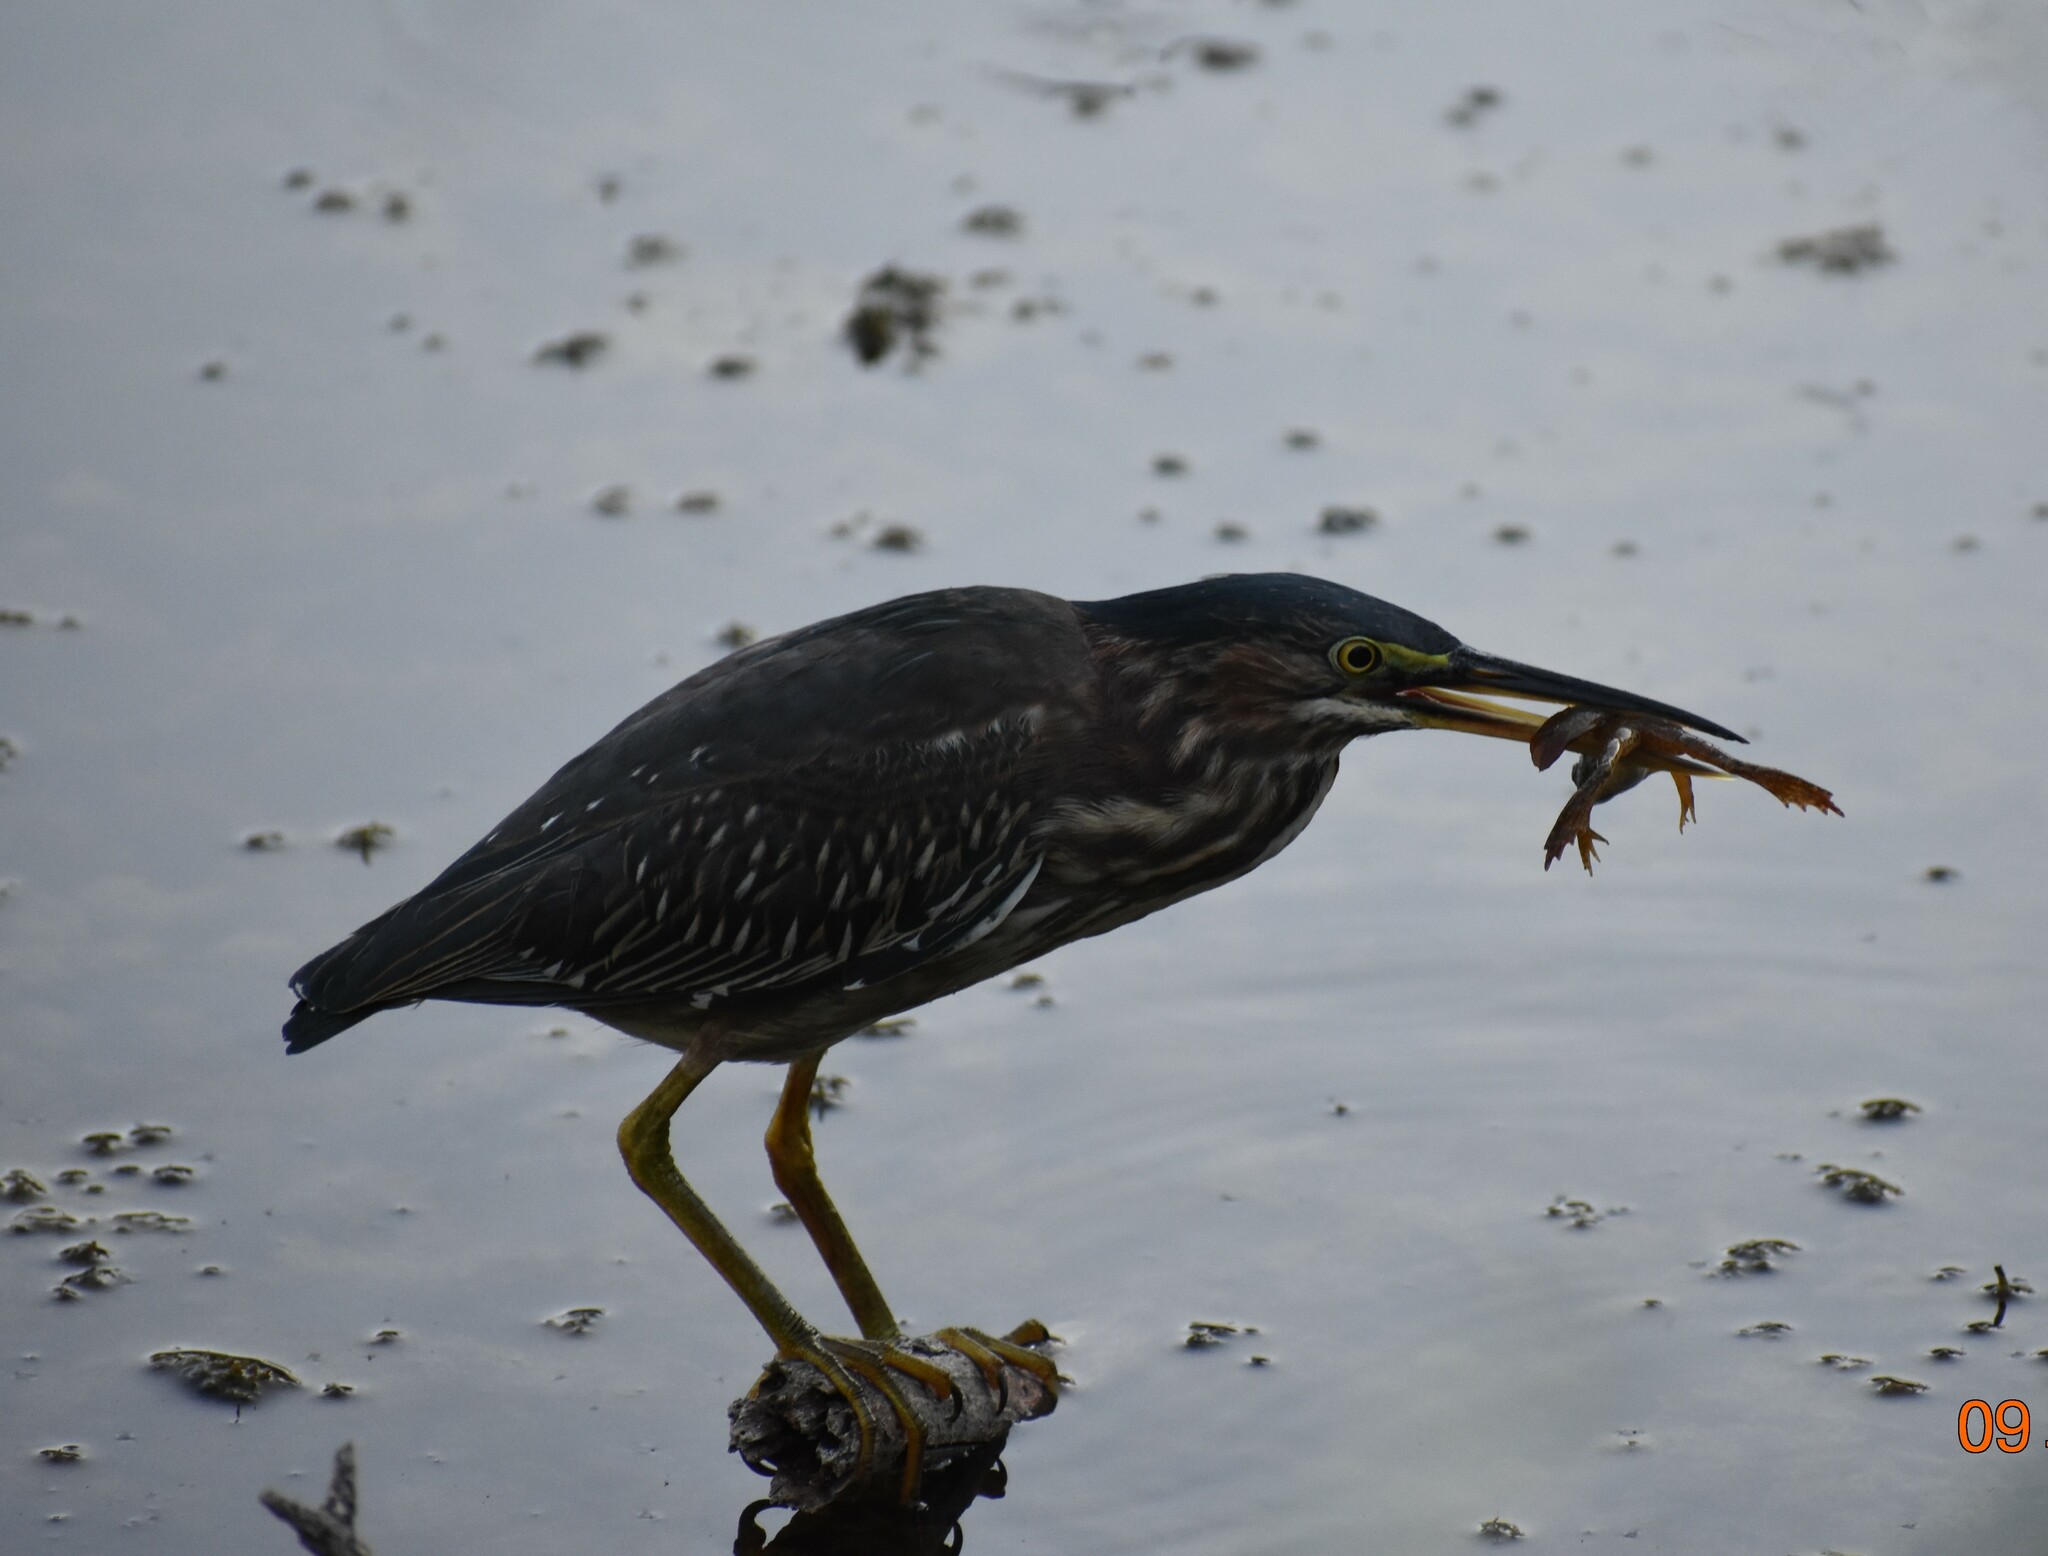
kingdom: Animalia
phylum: Chordata
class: Aves
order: Pelecaniformes
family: Ardeidae
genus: Butorides
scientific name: Butorides virescens
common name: Green heron
